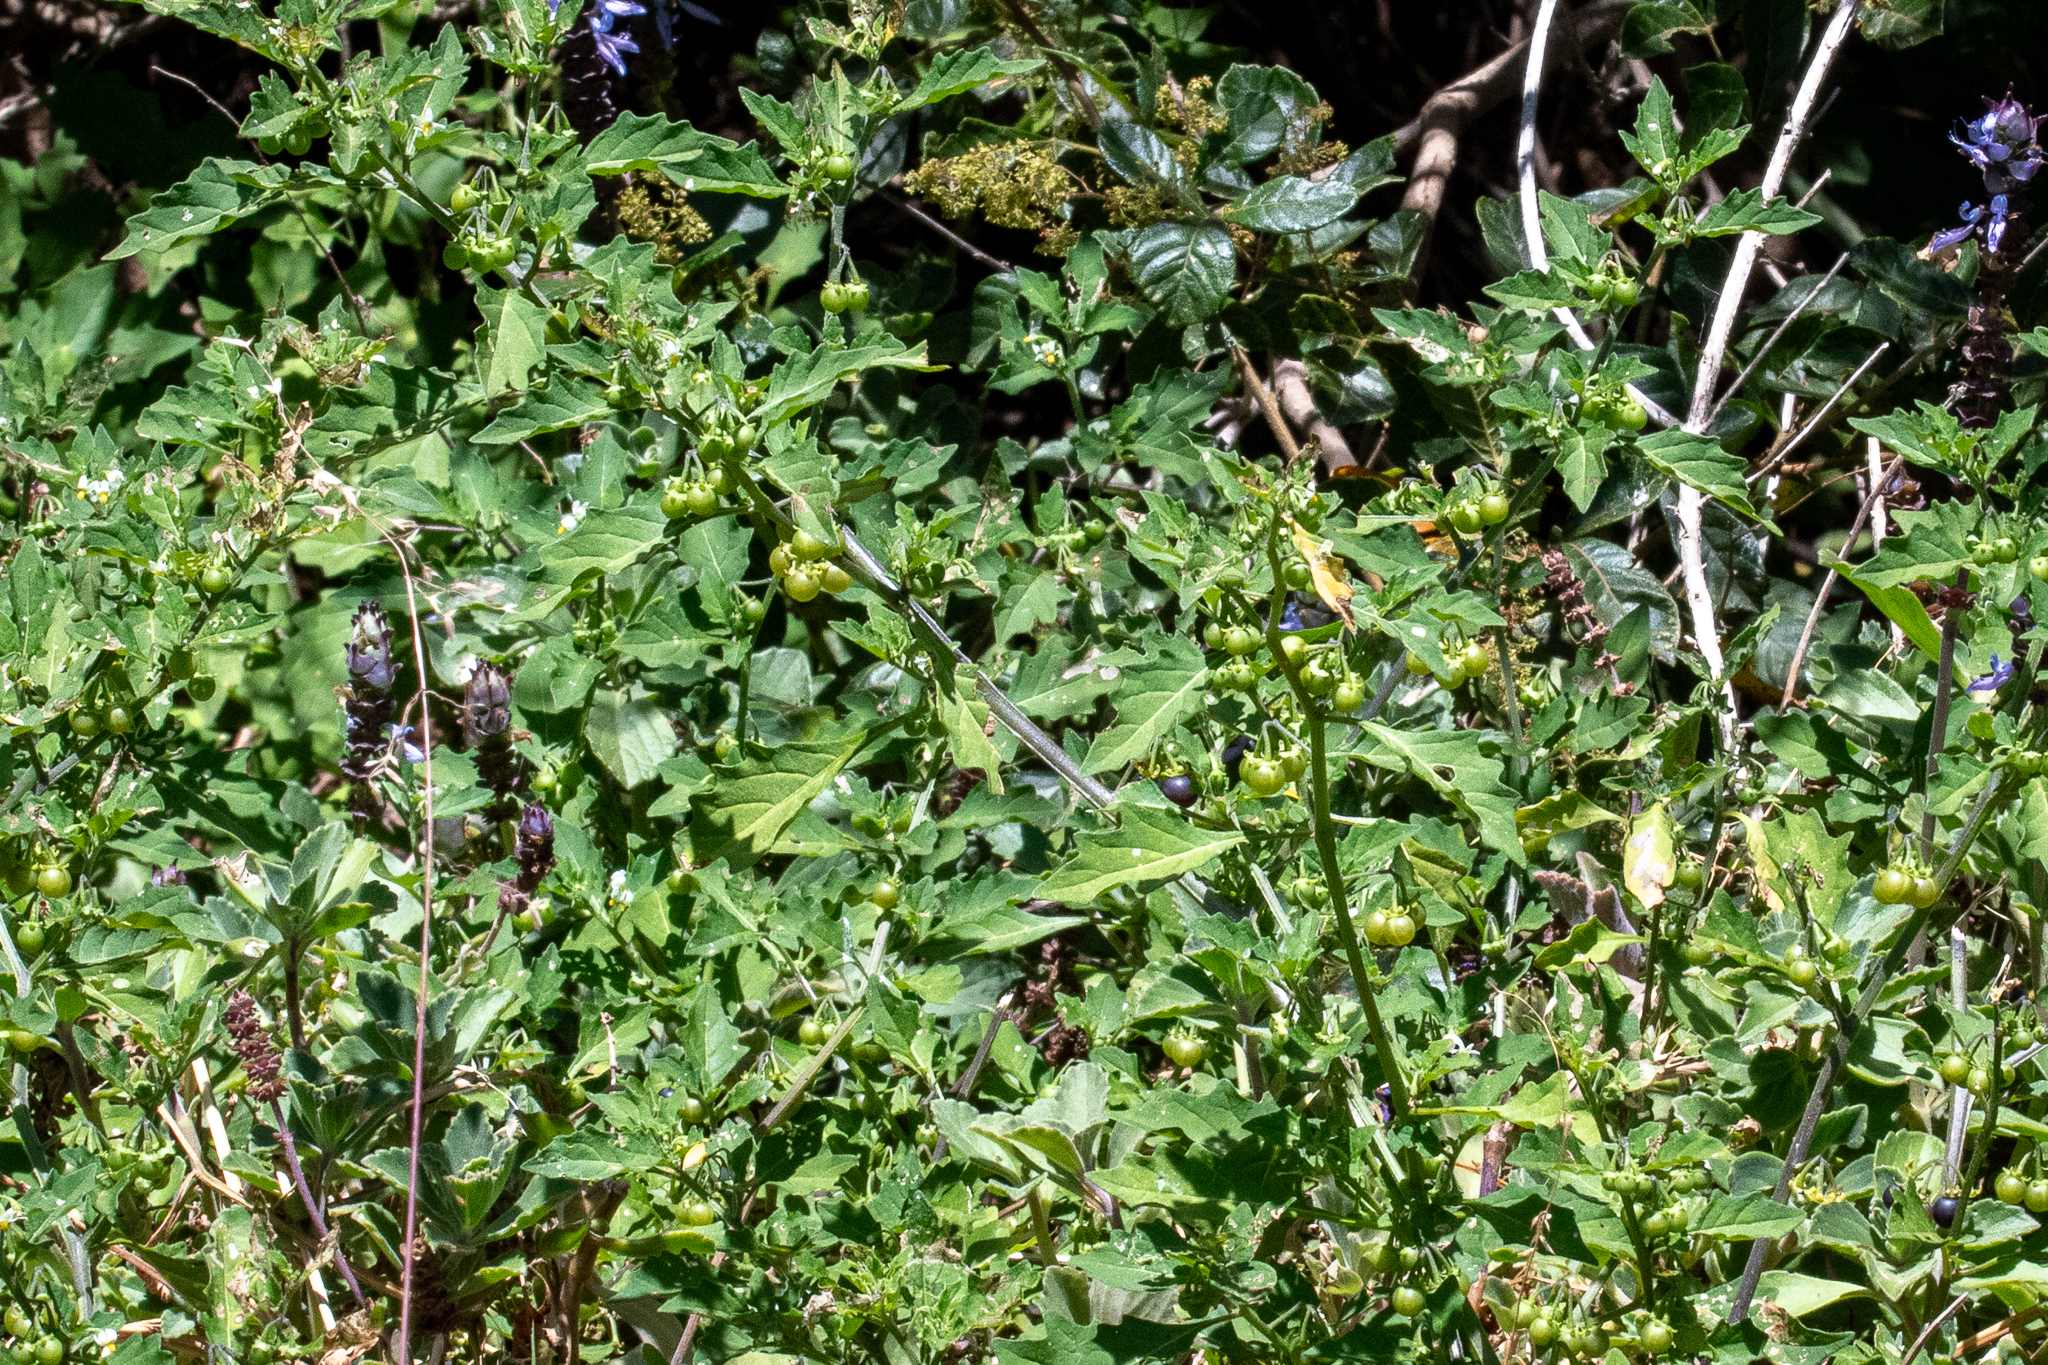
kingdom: Plantae
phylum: Tracheophyta
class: Magnoliopsida
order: Solanales
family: Solanaceae
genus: Solanum
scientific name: Solanum retroflexum
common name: Wonderberry
